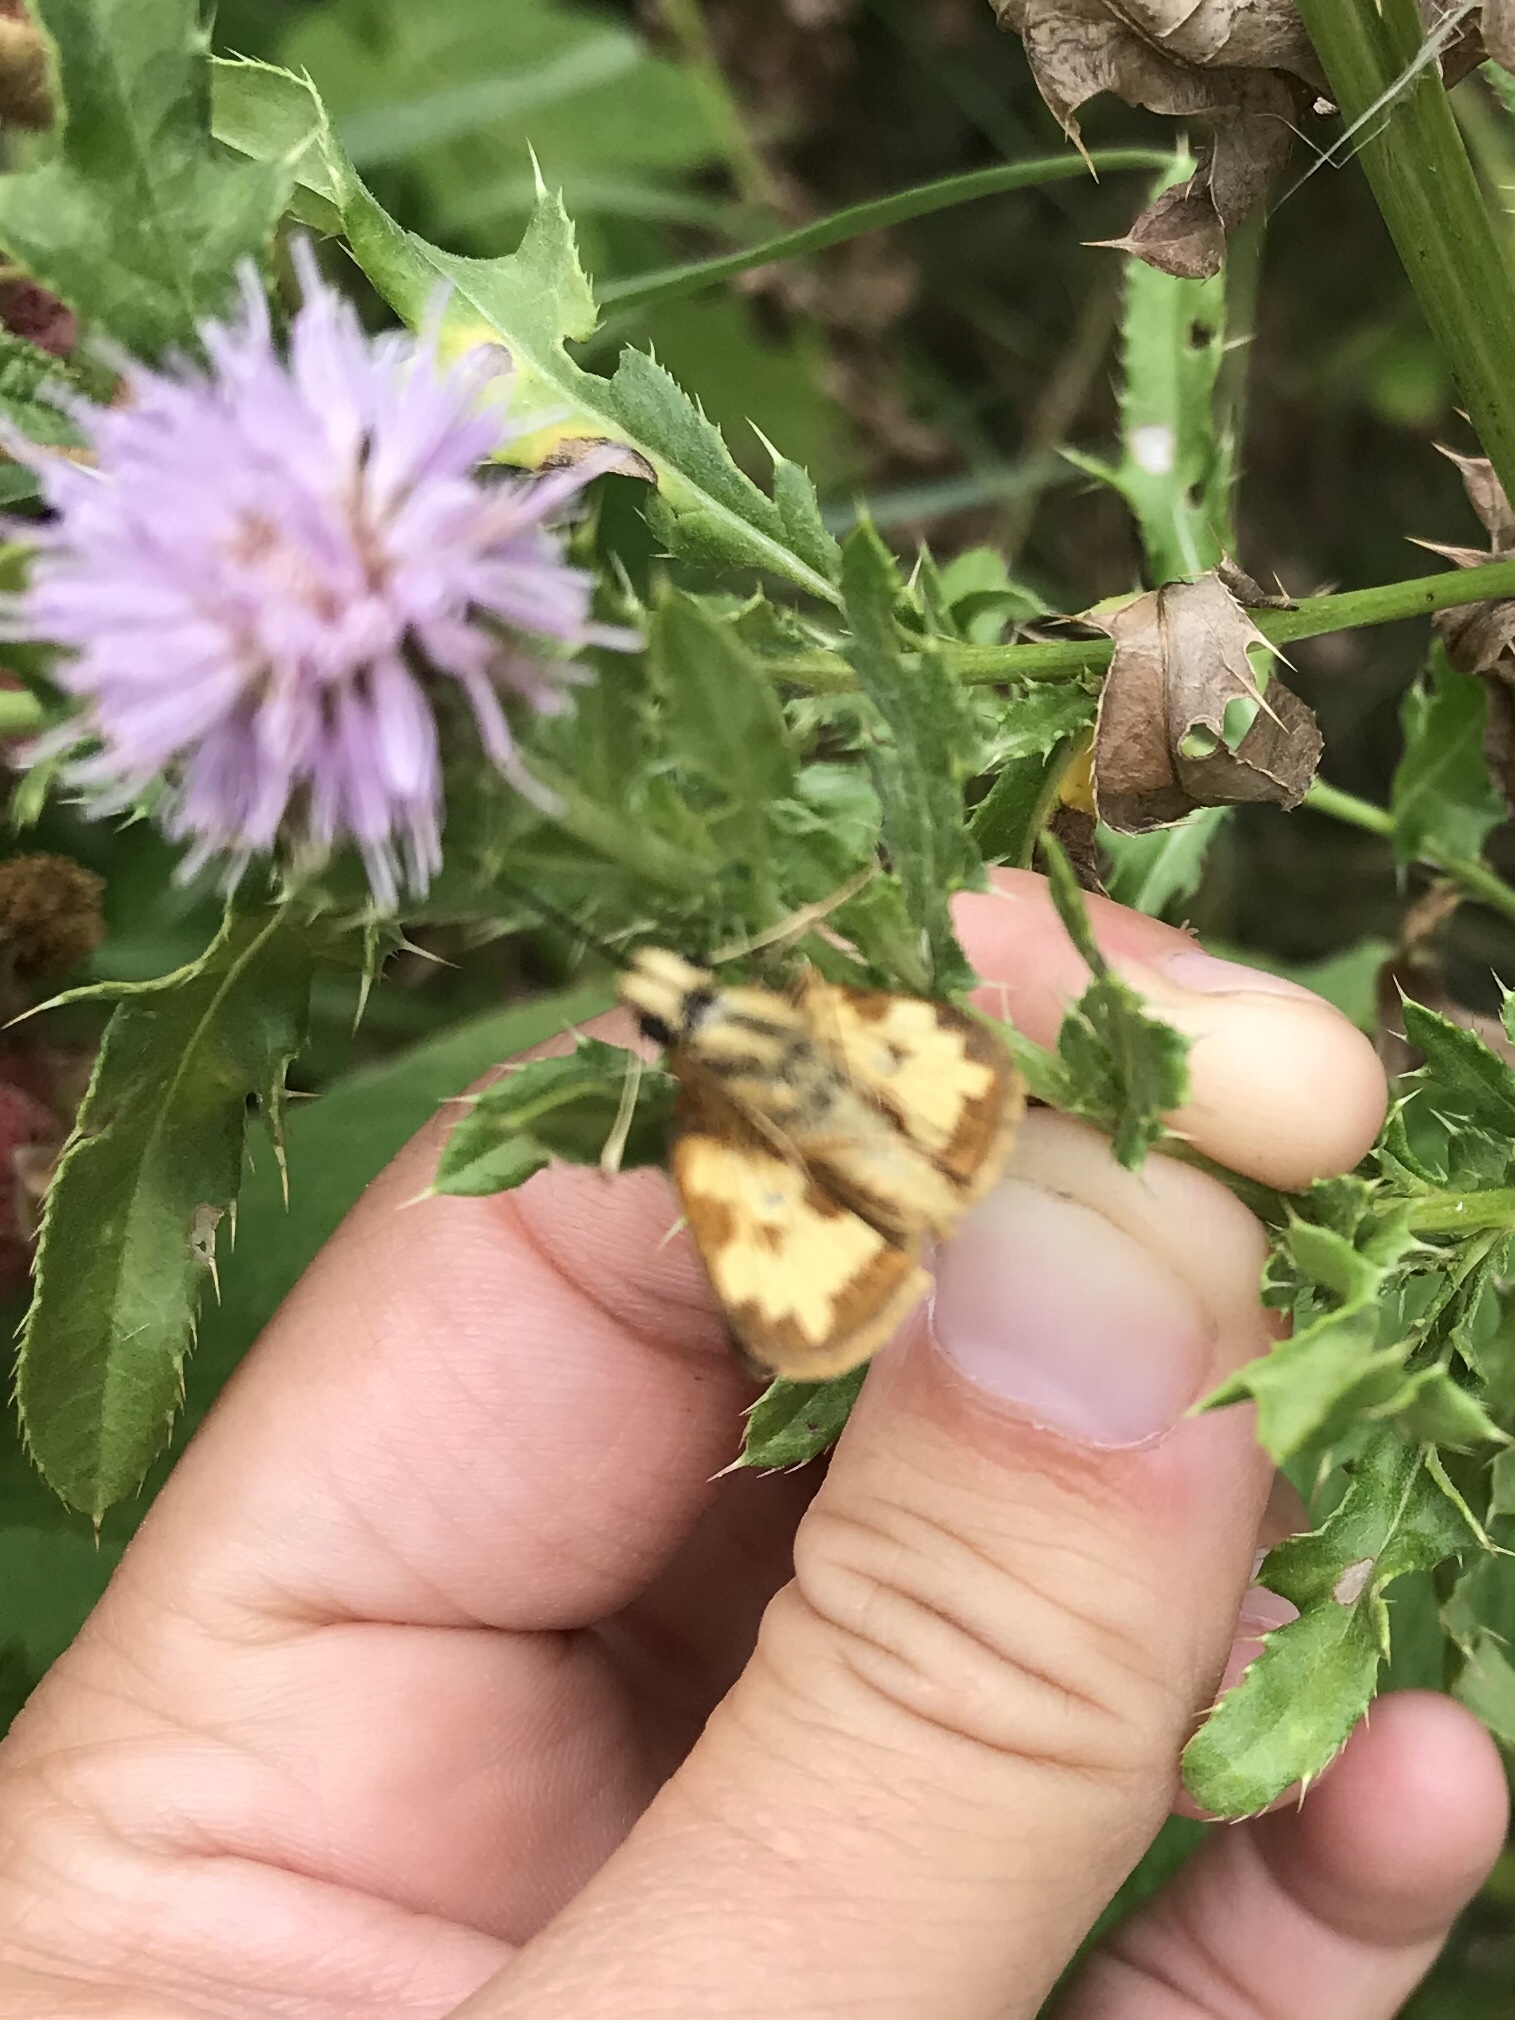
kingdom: Animalia
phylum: Arthropoda
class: Insecta
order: Lepidoptera
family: Hesperiidae
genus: Polites
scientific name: Polites coras
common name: Peck's skipper
